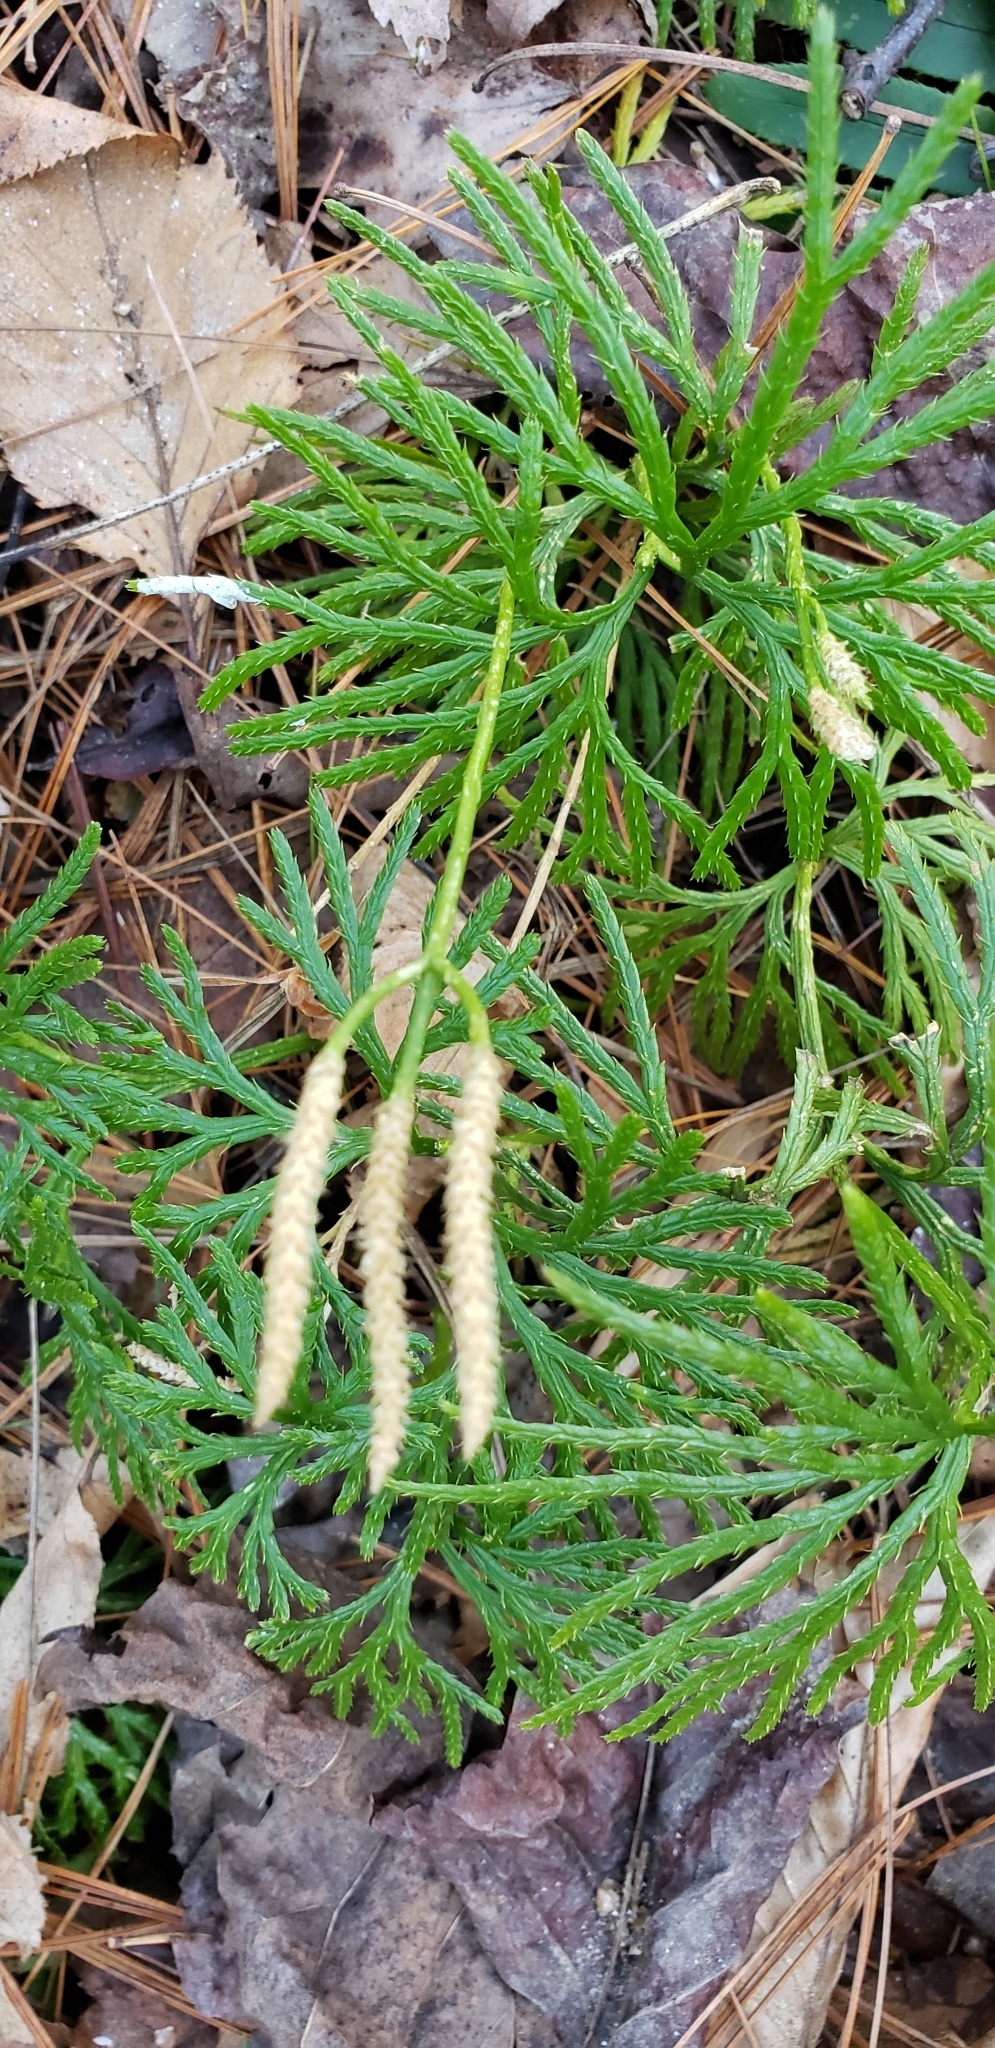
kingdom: Plantae
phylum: Tracheophyta
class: Lycopodiopsida
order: Lycopodiales
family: Lycopodiaceae
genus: Diphasiastrum
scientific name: Diphasiastrum digitatum
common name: Southern running-pine
